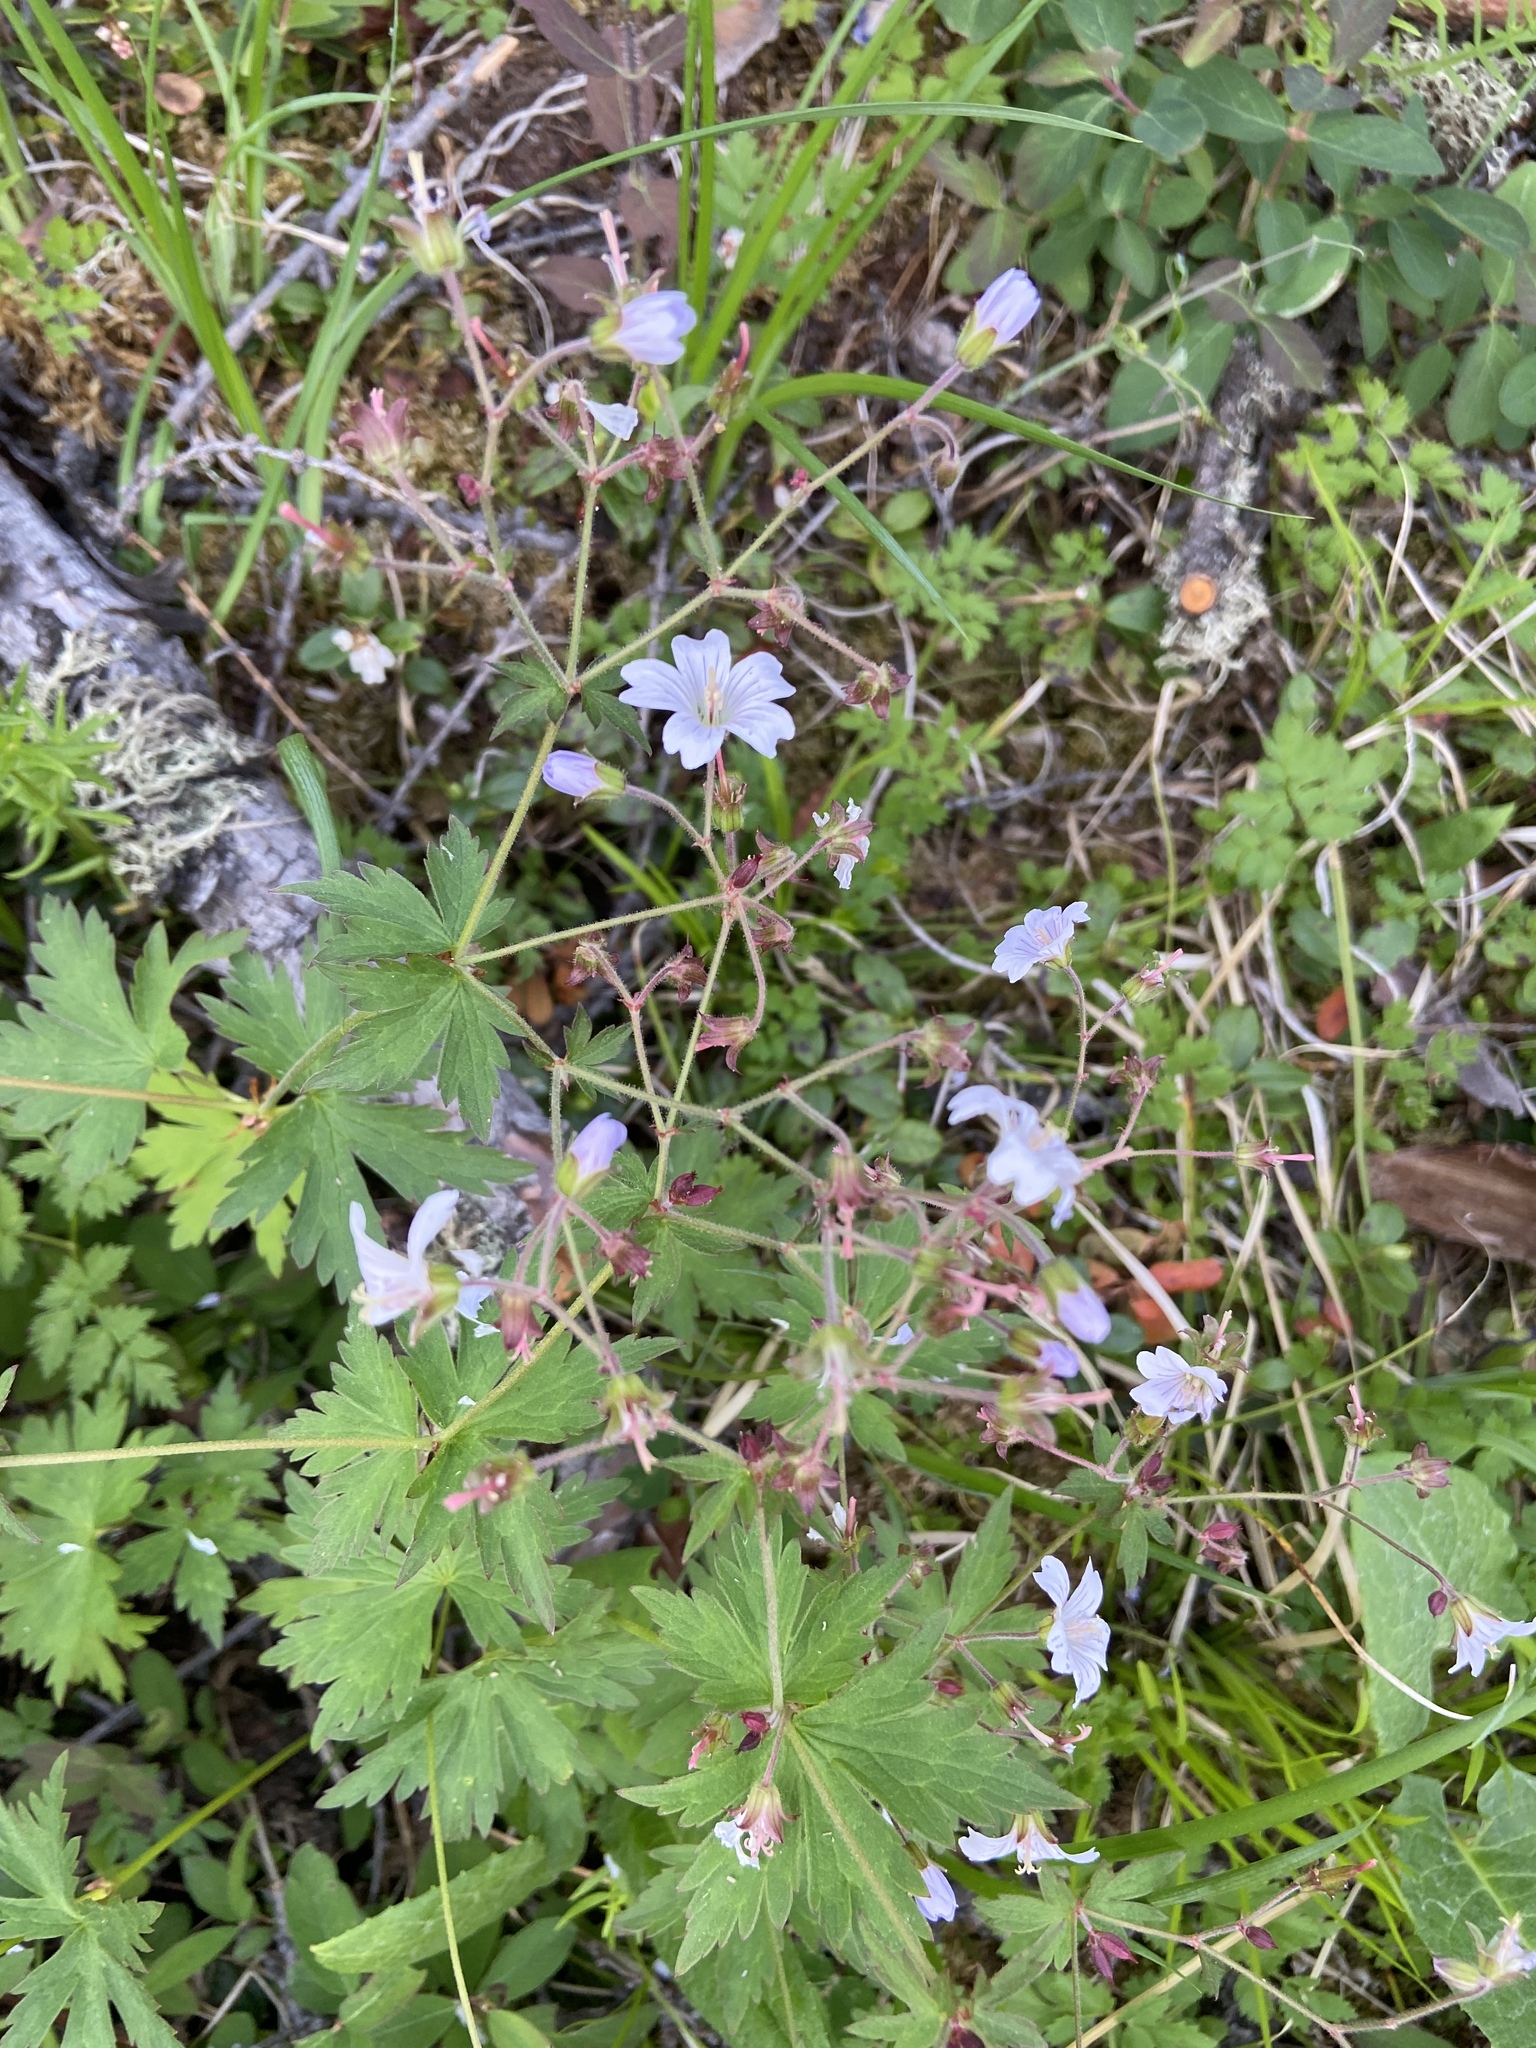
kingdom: Plantae
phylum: Tracheophyta
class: Magnoliopsida
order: Geraniales
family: Geraniaceae
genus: Geranium
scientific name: Geranium sylvaticum
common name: Wood crane's-bill
